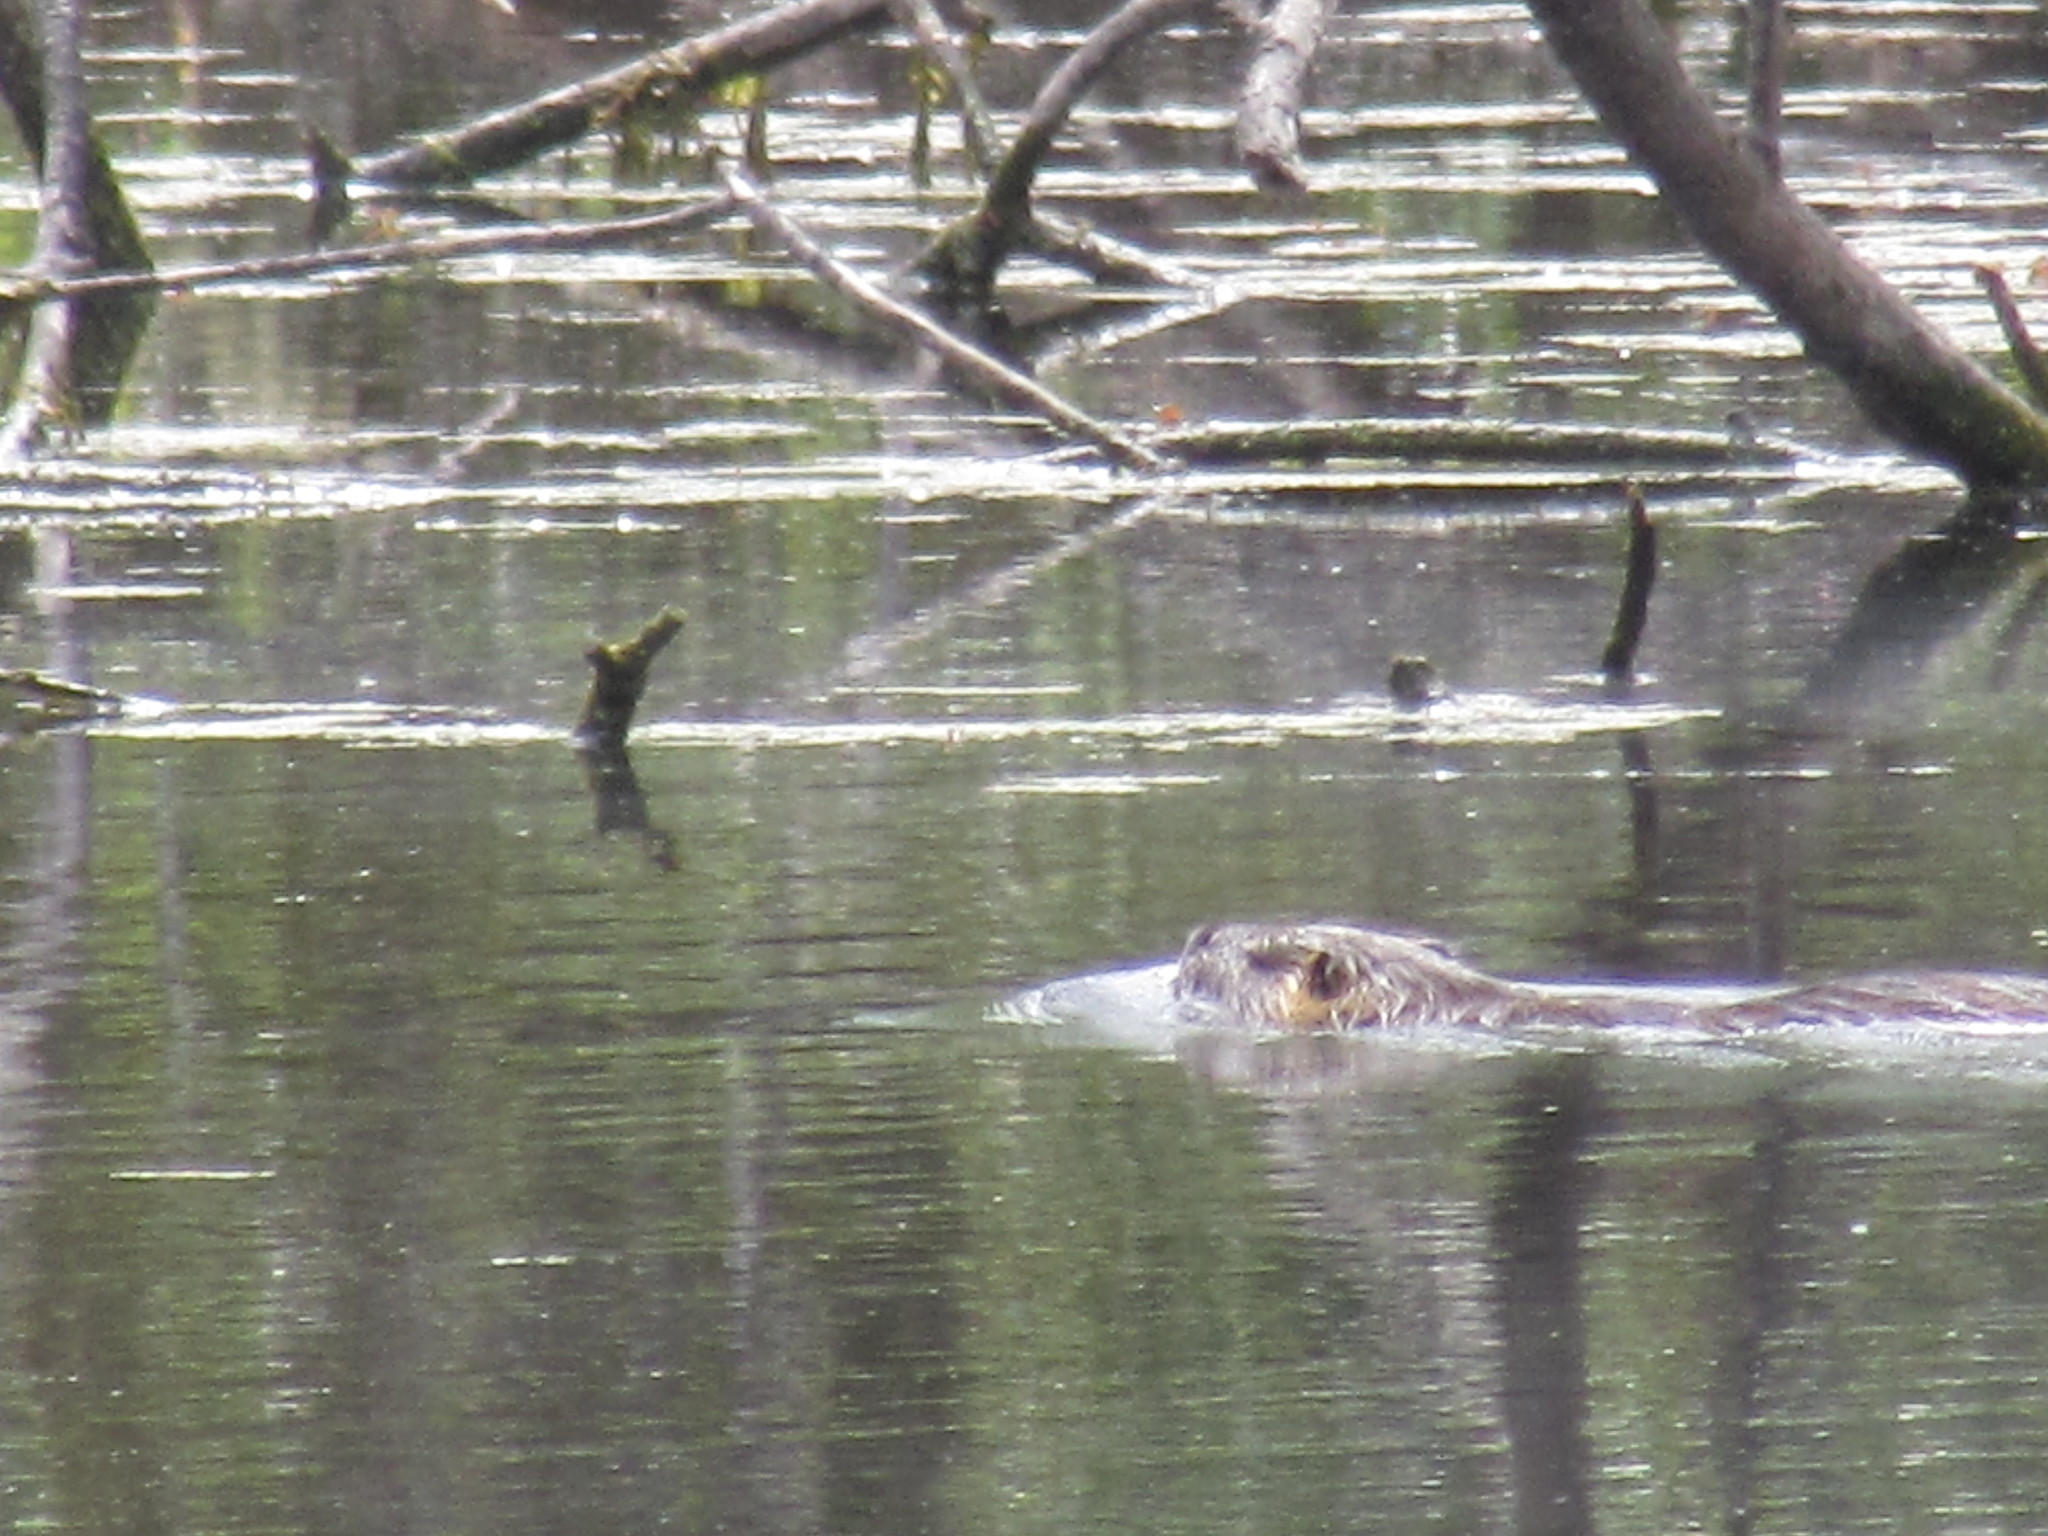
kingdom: Animalia
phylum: Chordata
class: Mammalia
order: Rodentia
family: Myocastoridae
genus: Myocastor
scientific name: Myocastor coypus
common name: Coypu
